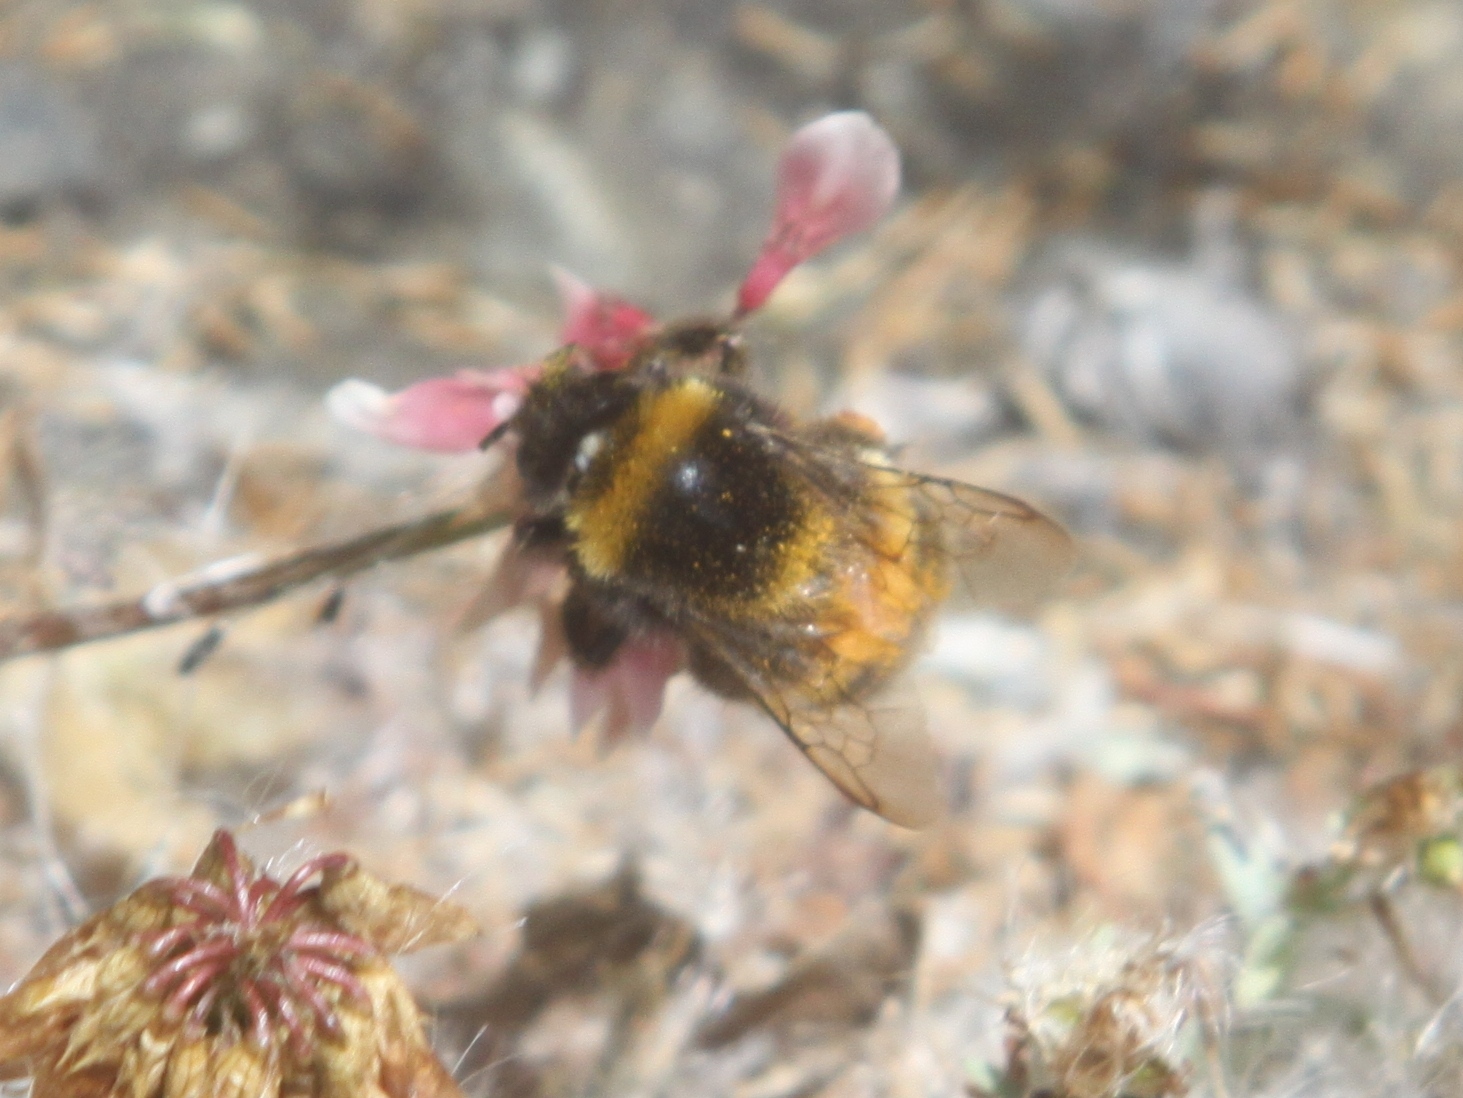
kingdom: Animalia
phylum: Arthropoda
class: Insecta
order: Hymenoptera
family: Apidae
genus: Bombus
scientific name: Bombus ruderatus
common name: Large garden bumblebee
